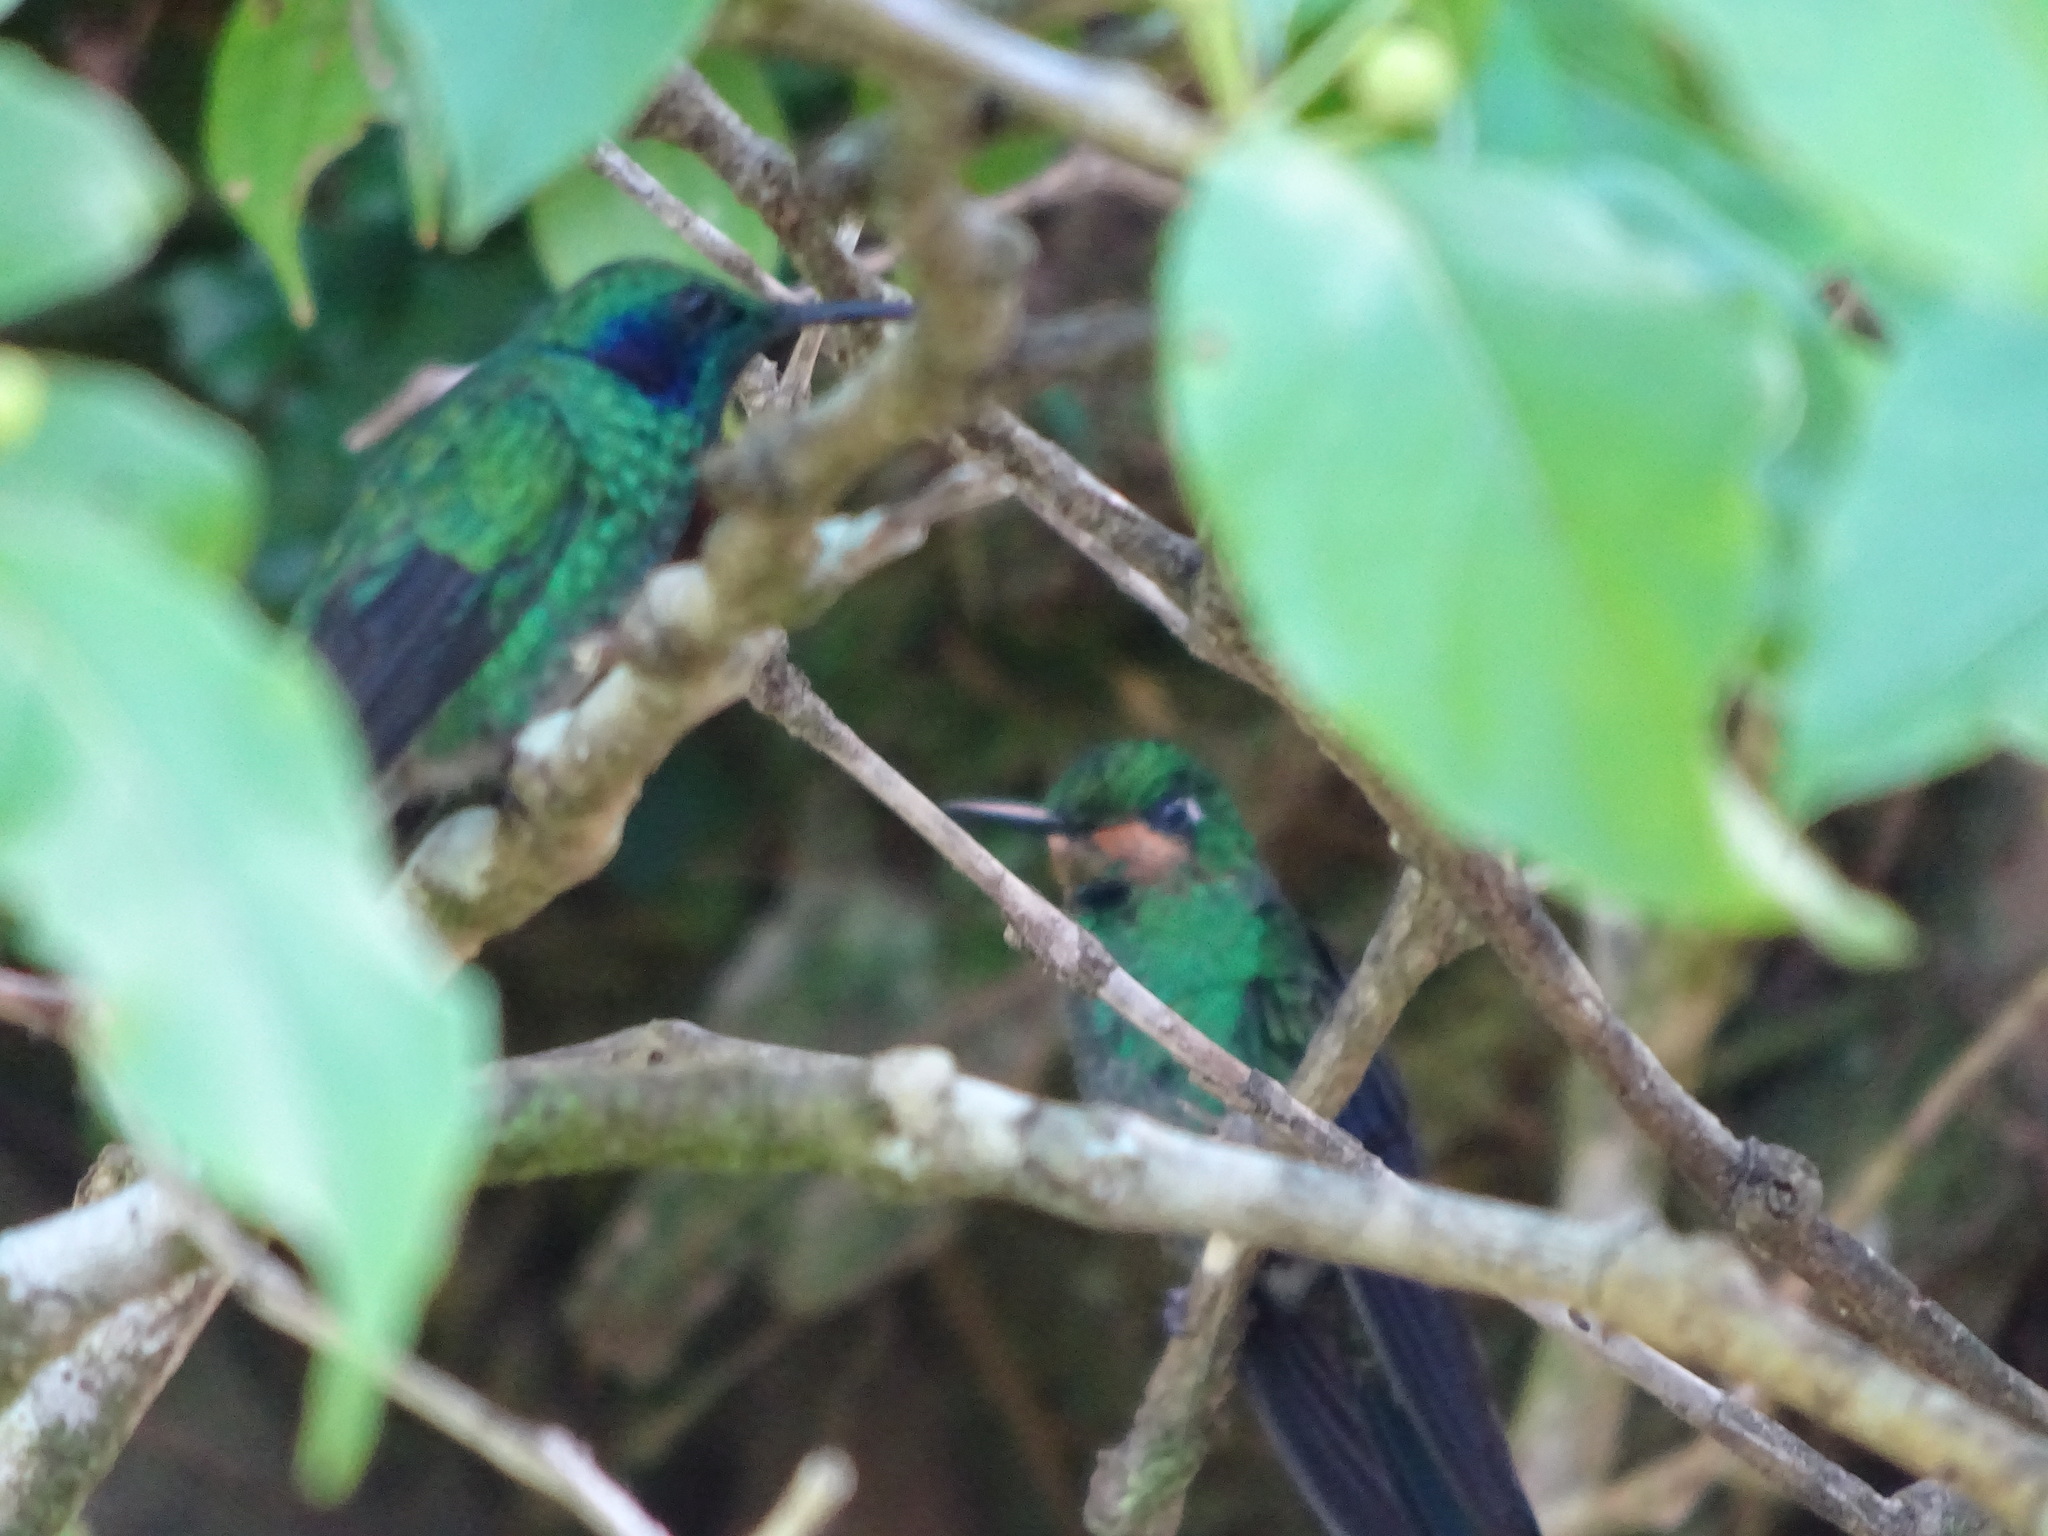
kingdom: Animalia
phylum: Chordata
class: Aves
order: Apodiformes
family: Trochilidae
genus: Heliodoxa
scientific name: Heliodoxa jacula
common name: Green-crowned brilliant
